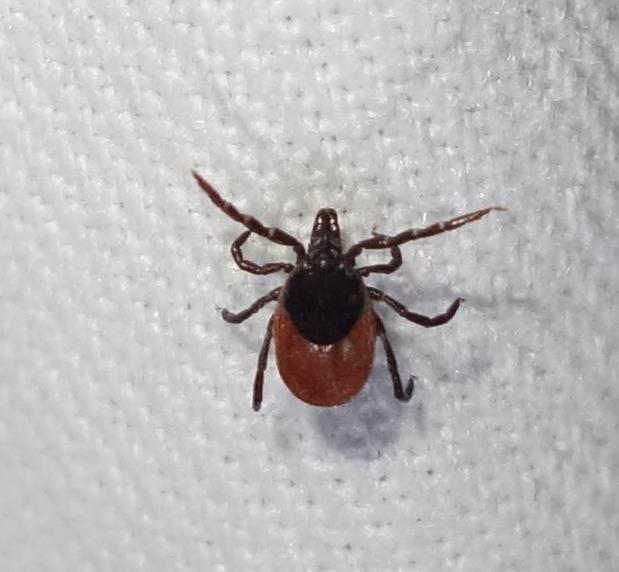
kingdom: Animalia
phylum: Arthropoda
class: Arachnida
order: Ixodida
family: Ixodidae
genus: Ixodes
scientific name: Ixodes ricinus
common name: Castor bean tick
